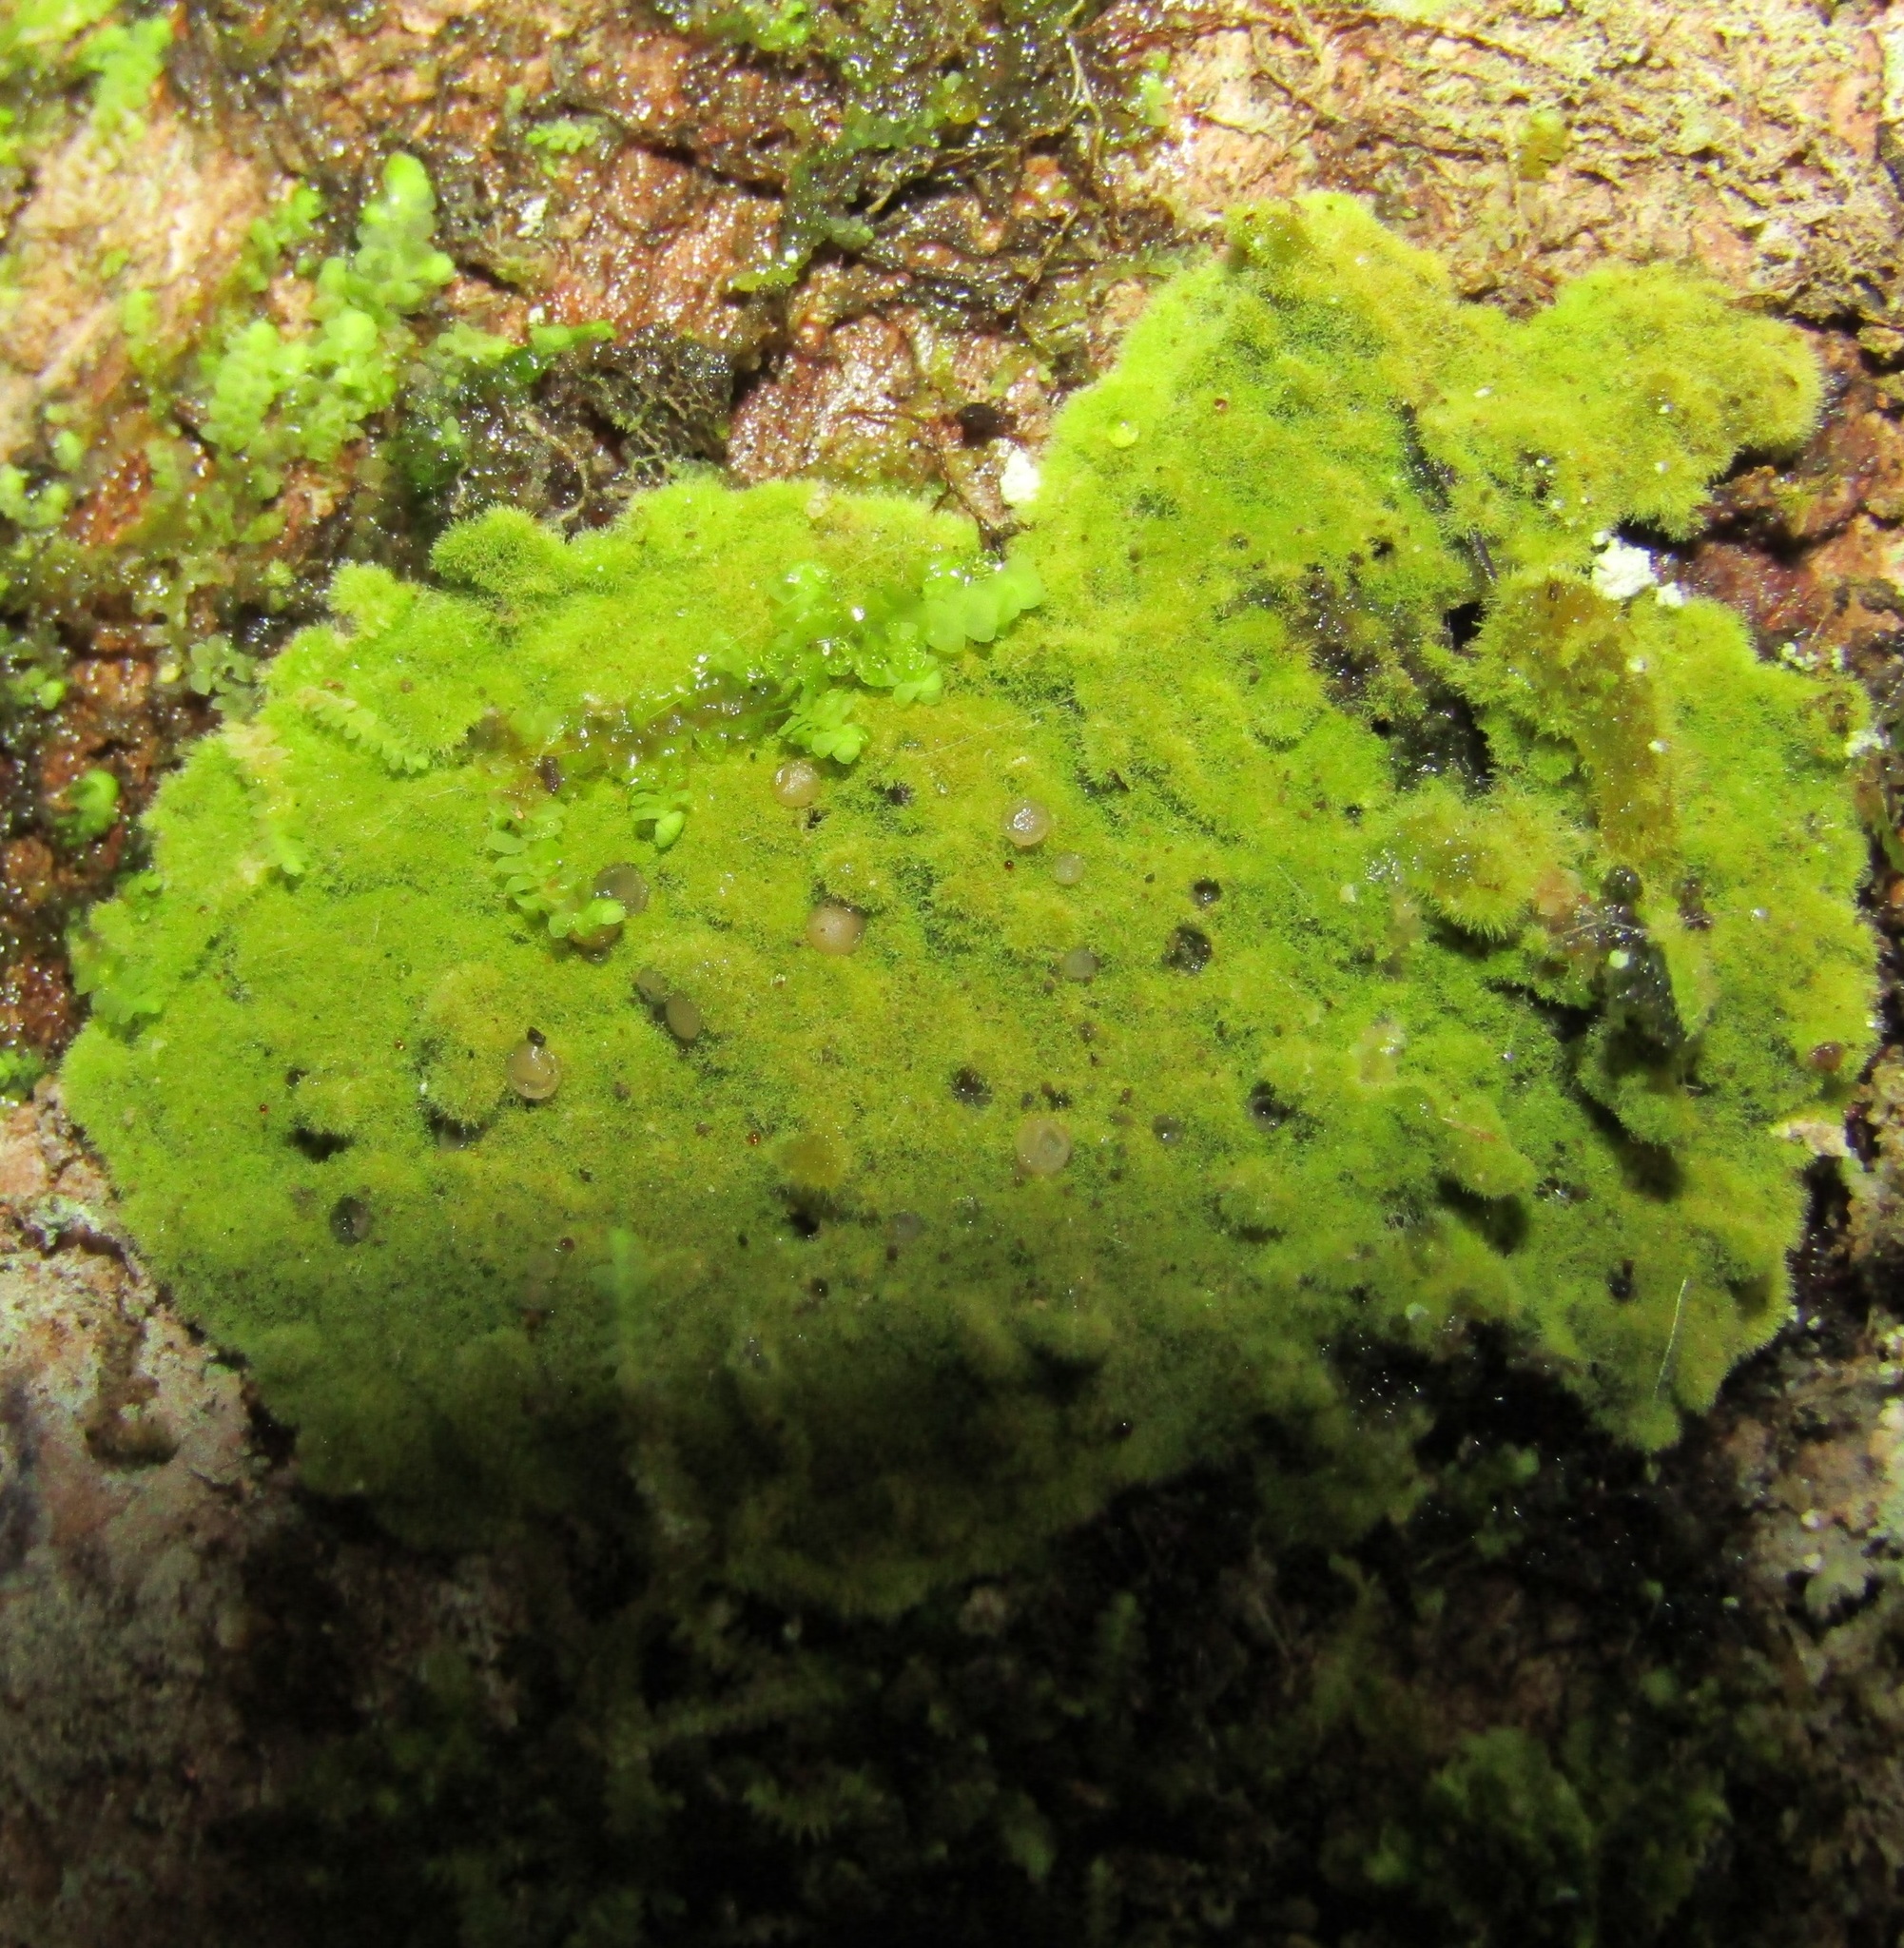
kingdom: Fungi
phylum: Ascomycota
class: Lecanoromycetes
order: Ostropales
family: Coenogoniaceae
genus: Coenogonium
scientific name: Coenogonium implexum
